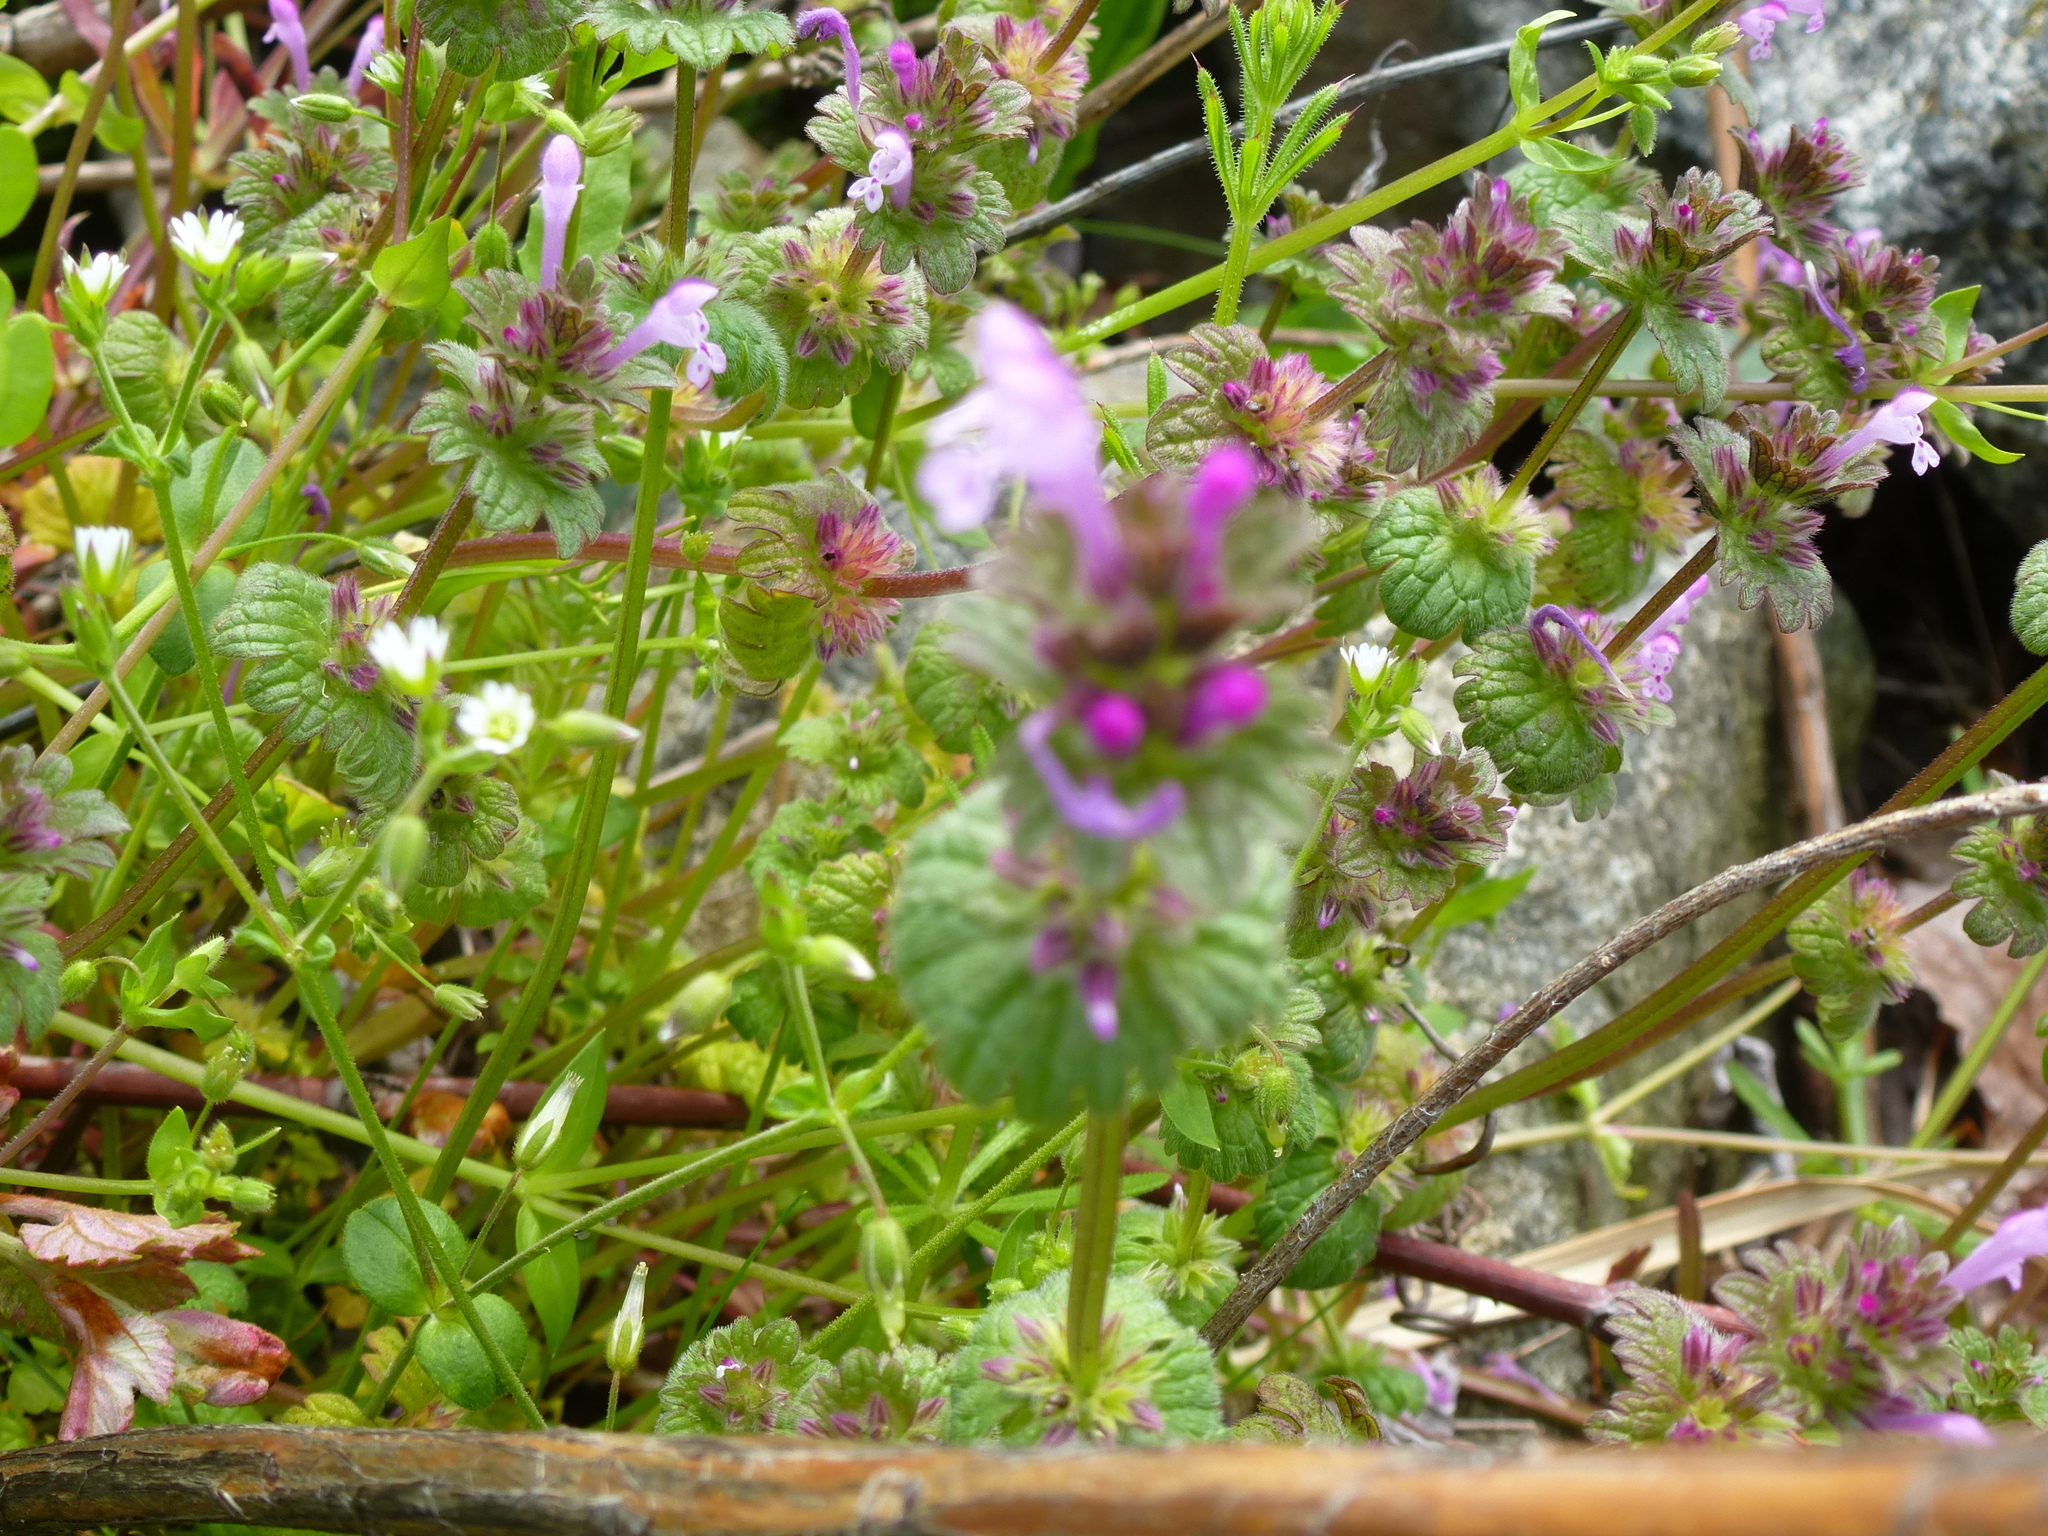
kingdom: Plantae
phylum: Tracheophyta
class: Magnoliopsida
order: Lamiales
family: Lamiaceae
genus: Lamium
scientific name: Lamium amplexicaule
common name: Henbit dead-nettle
